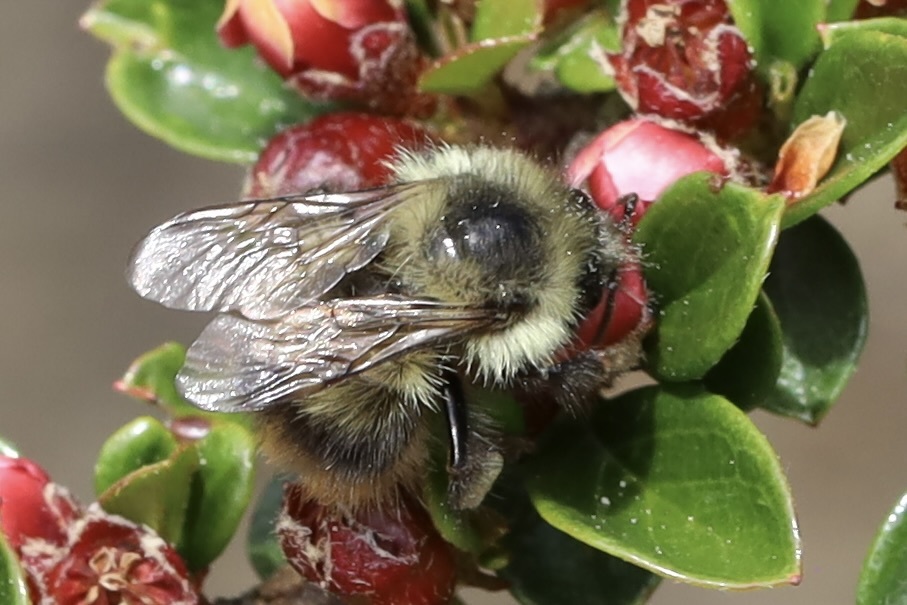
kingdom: Animalia
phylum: Arthropoda
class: Insecta
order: Hymenoptera
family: Apidae
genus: Bombus
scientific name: Bombus mixtus
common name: Fuzzy-horned bumble bee
